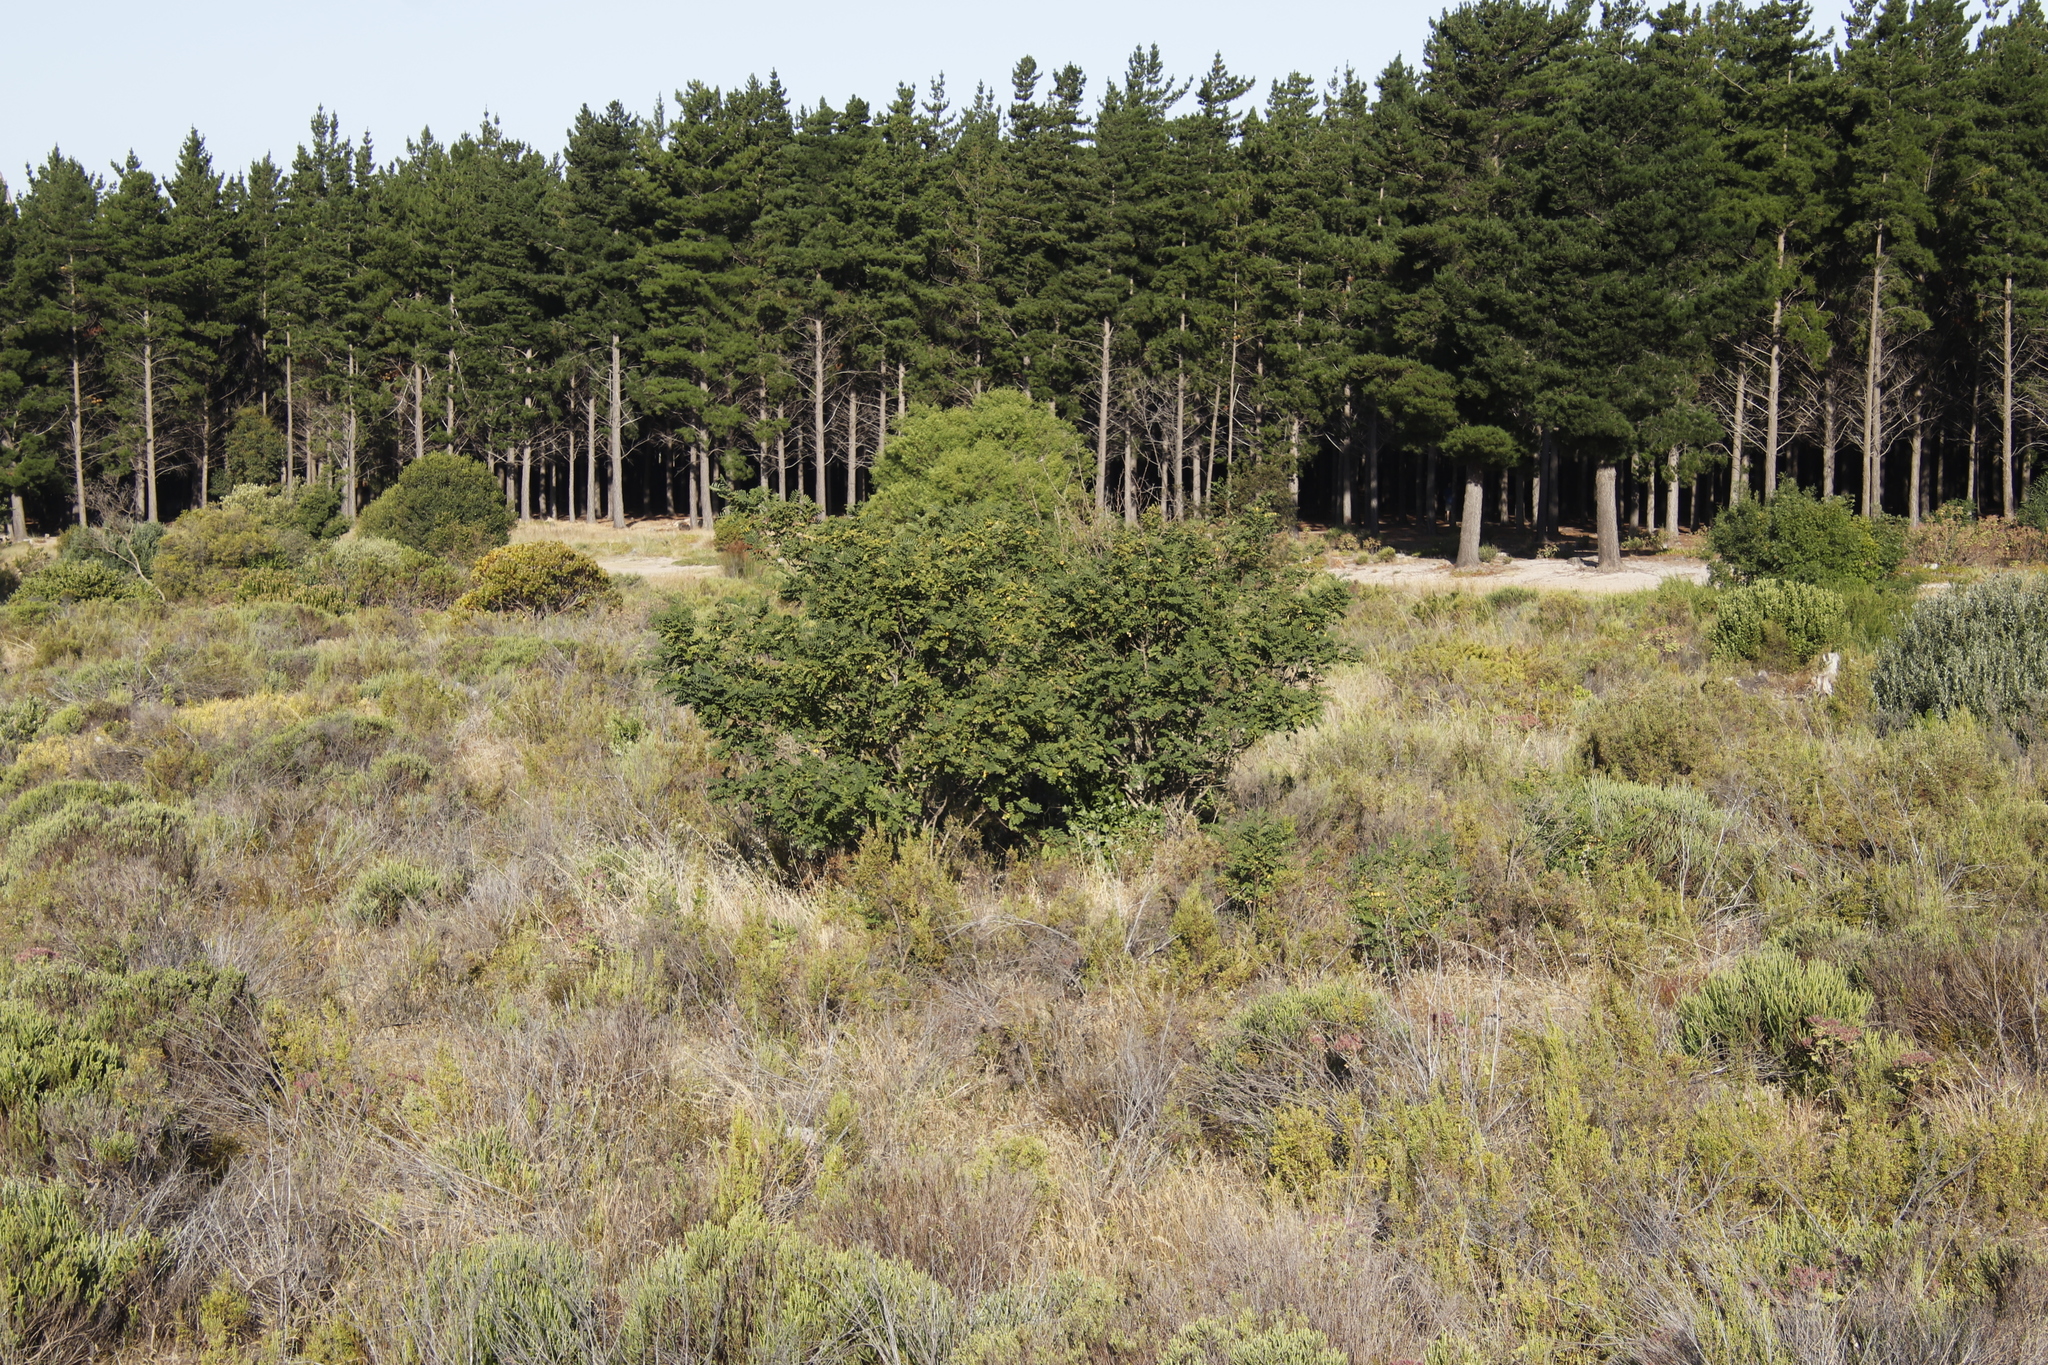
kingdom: Plantae
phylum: Tracheophyta
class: Magnoliopsida
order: Fabales
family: Fabaceae
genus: Robinia
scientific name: Robinia pseudoacacia
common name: Black locust
